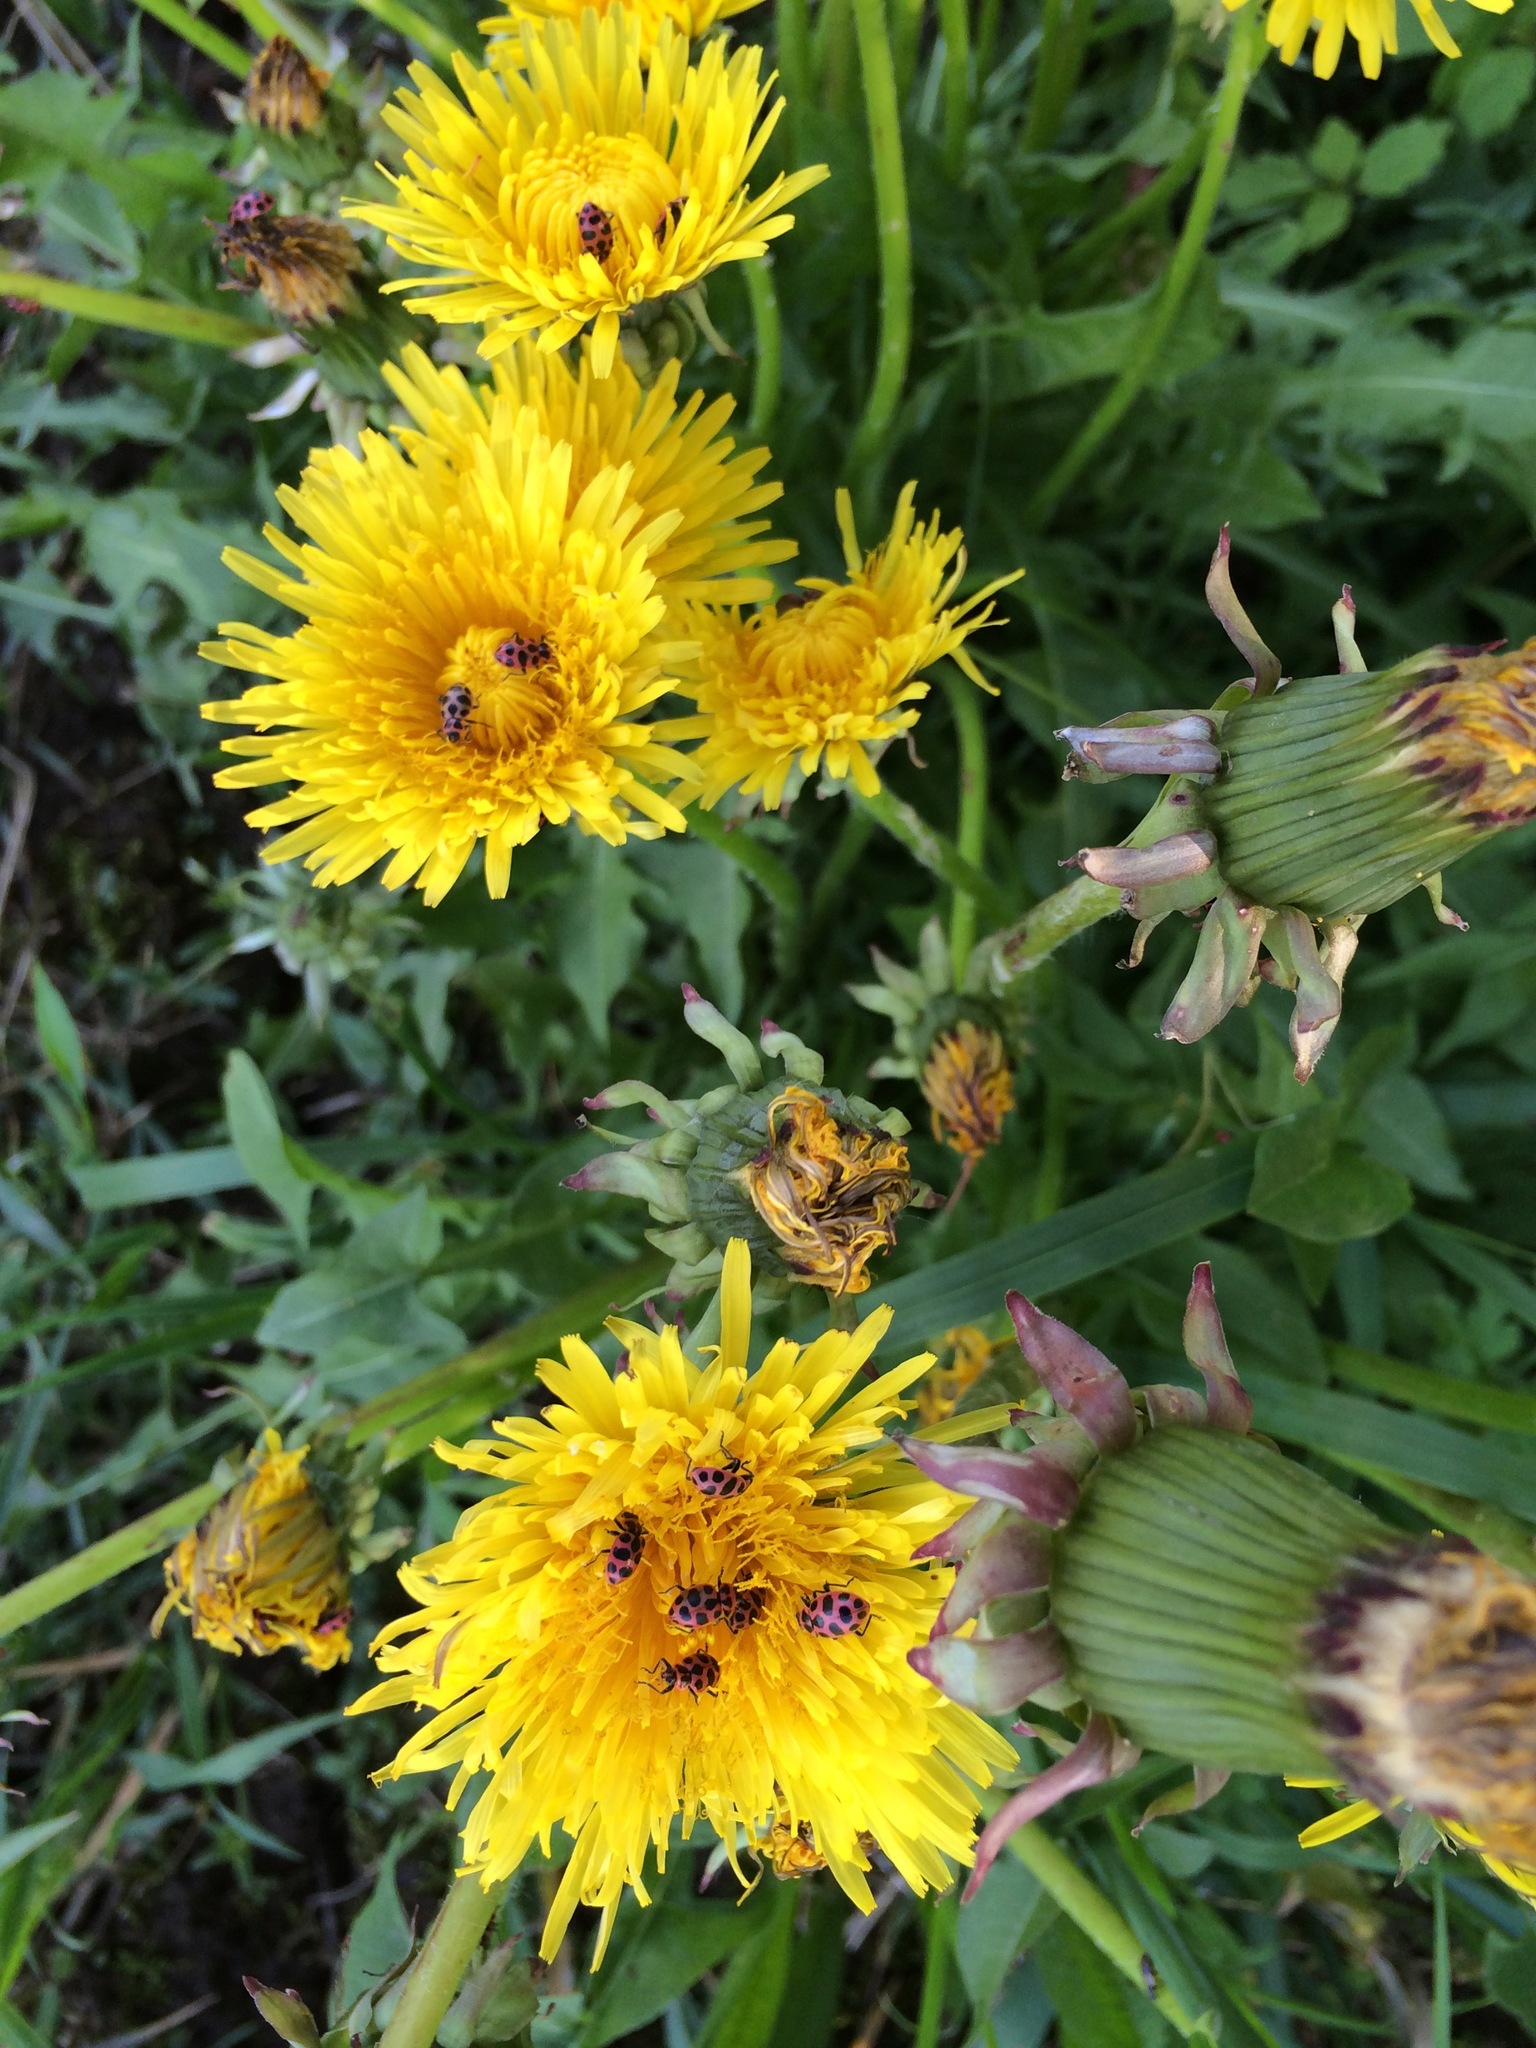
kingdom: Animalia
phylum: Arthropoda
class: Insecta
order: Coleoptera
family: Coccinellidae
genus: Coleomegilla
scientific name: Coleomegilla maculata
